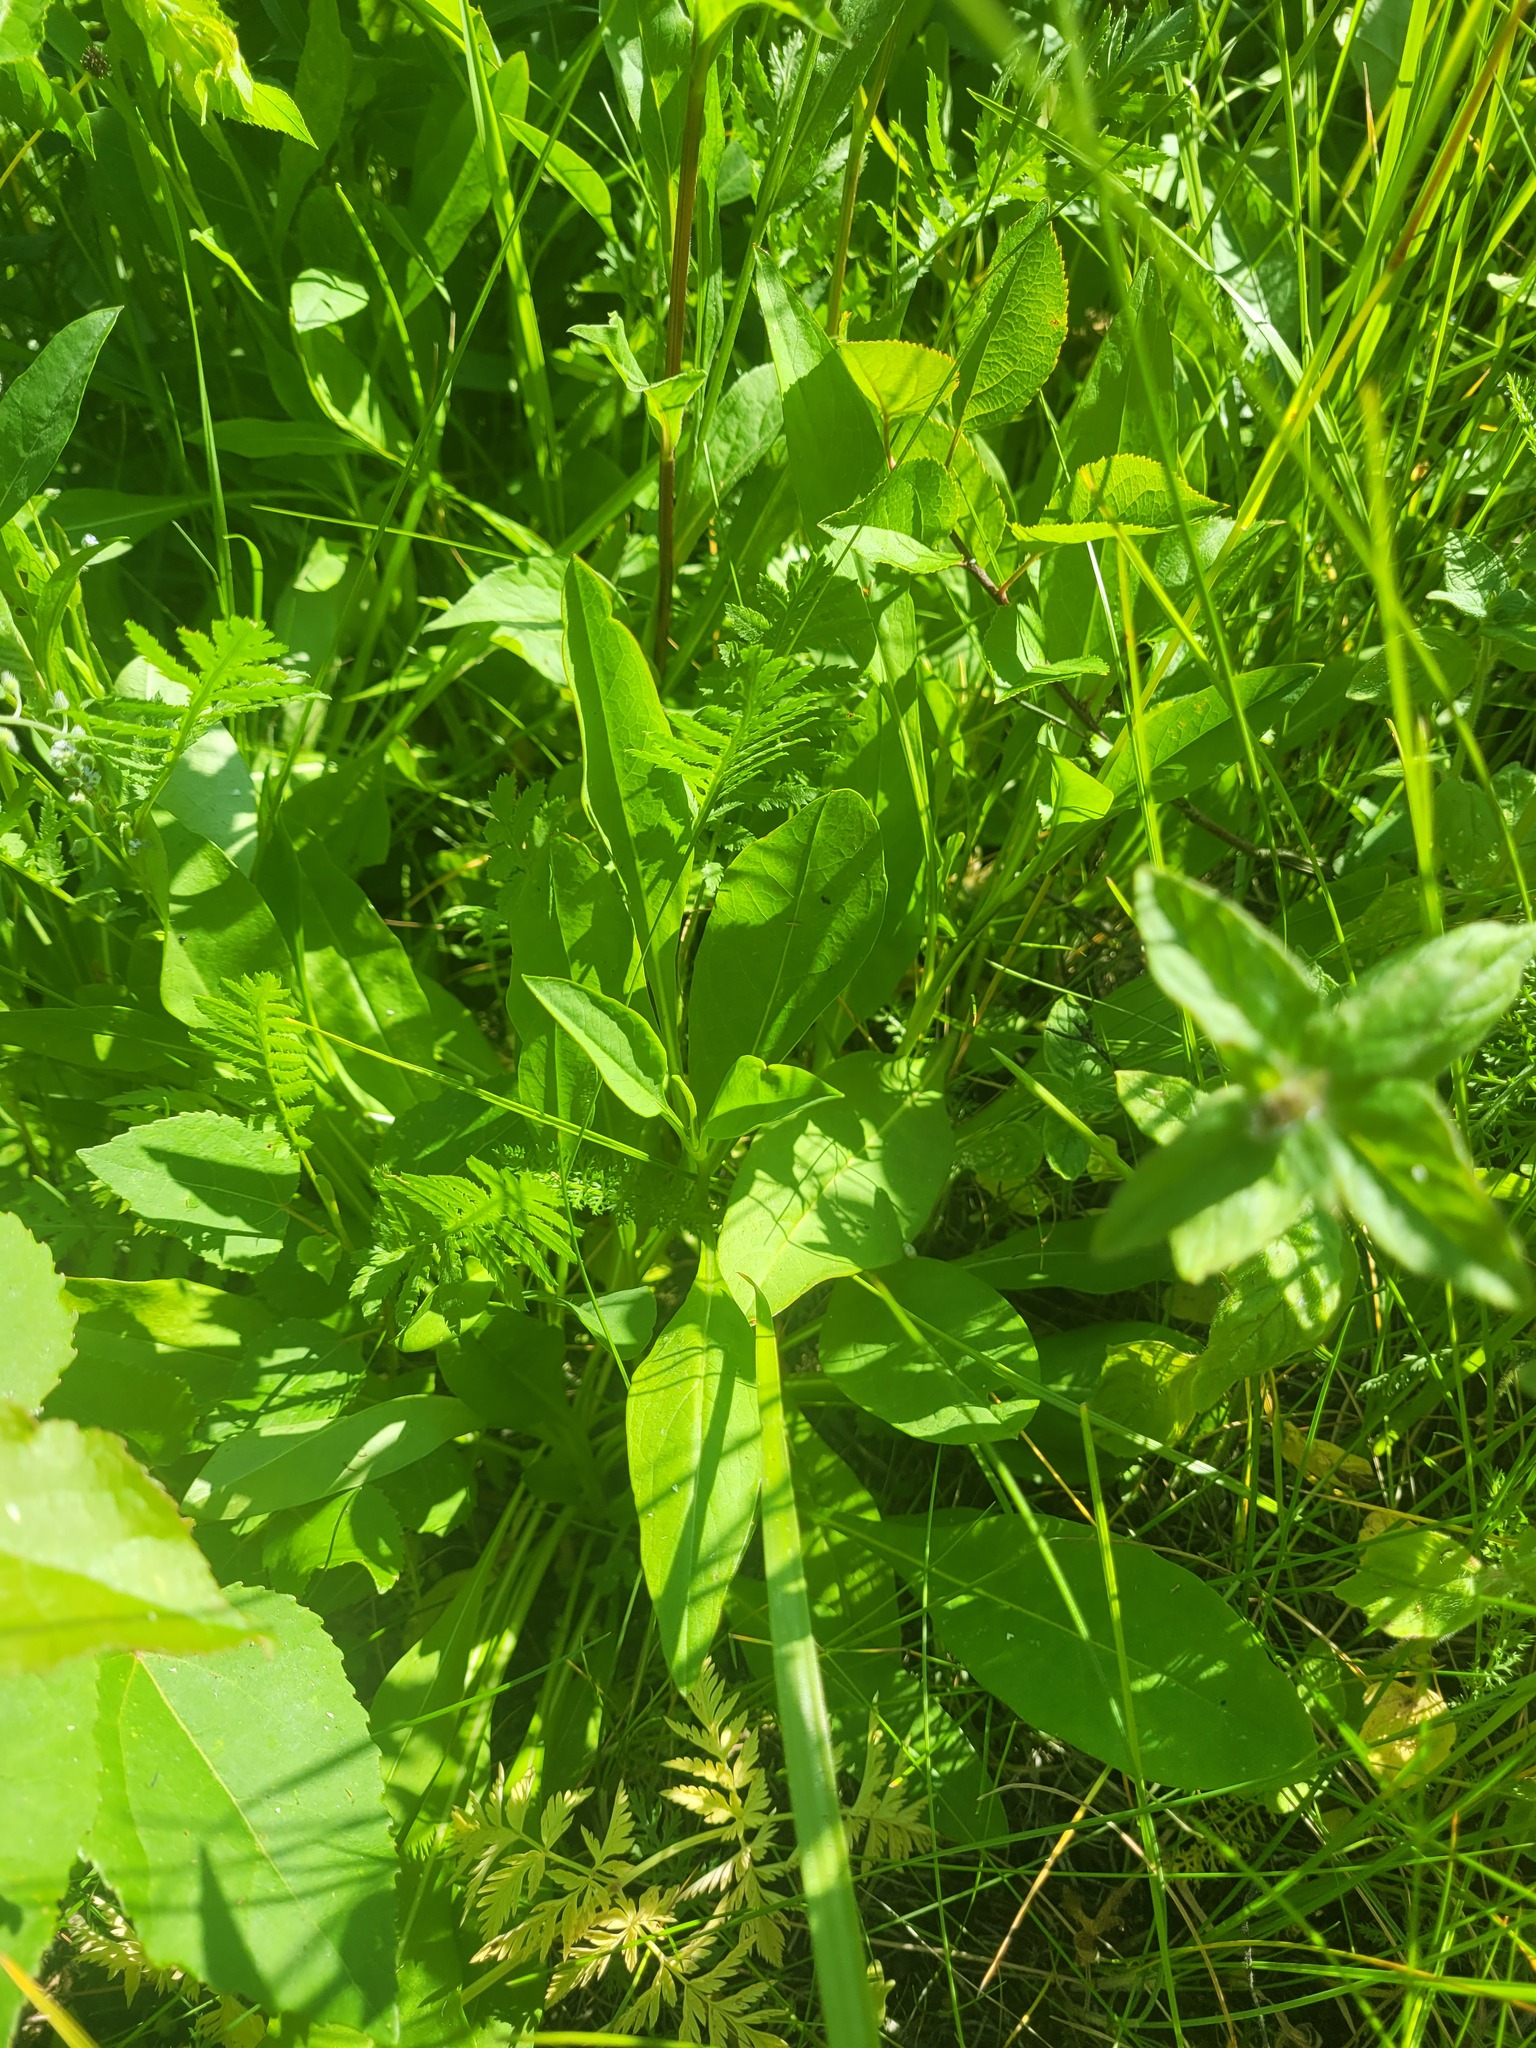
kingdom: Plantae
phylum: Tracheophyta
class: Magnoliopsida
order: Dipsacales
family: Caprifoliaceae
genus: Succisa
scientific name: Succisa pratensis
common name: Devil's-bit
